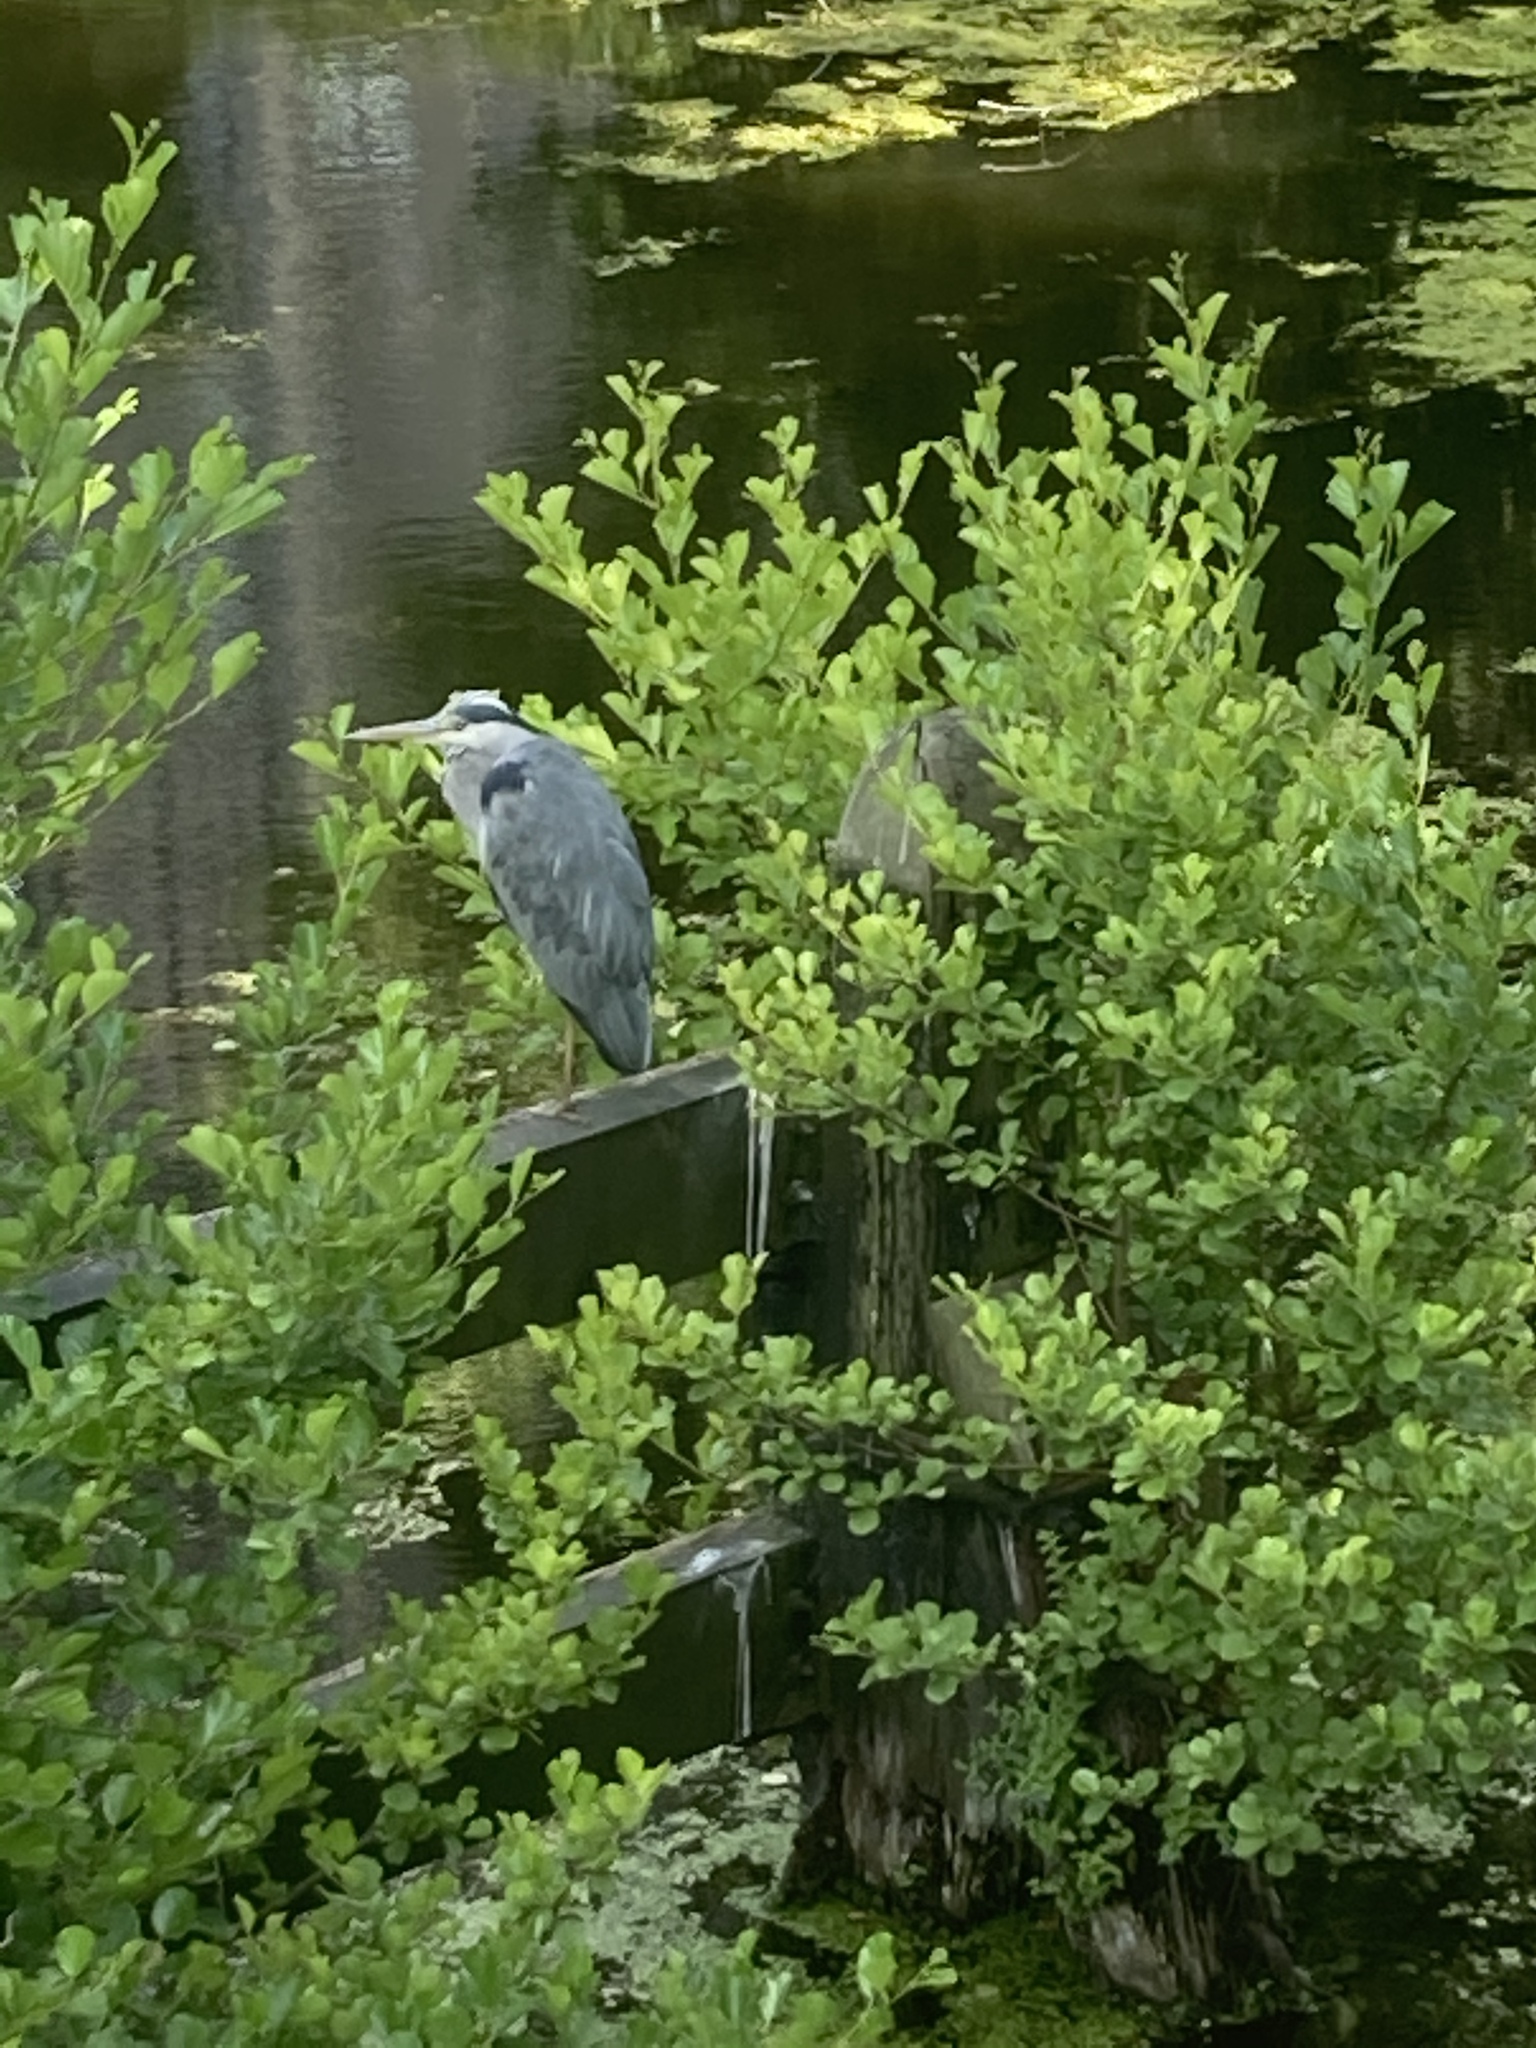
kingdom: Animalia
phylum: Chordata
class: Aves
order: Pelecaniformes
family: Ardeidae
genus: Ardea
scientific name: Ardea cinerea
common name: Grey heron
